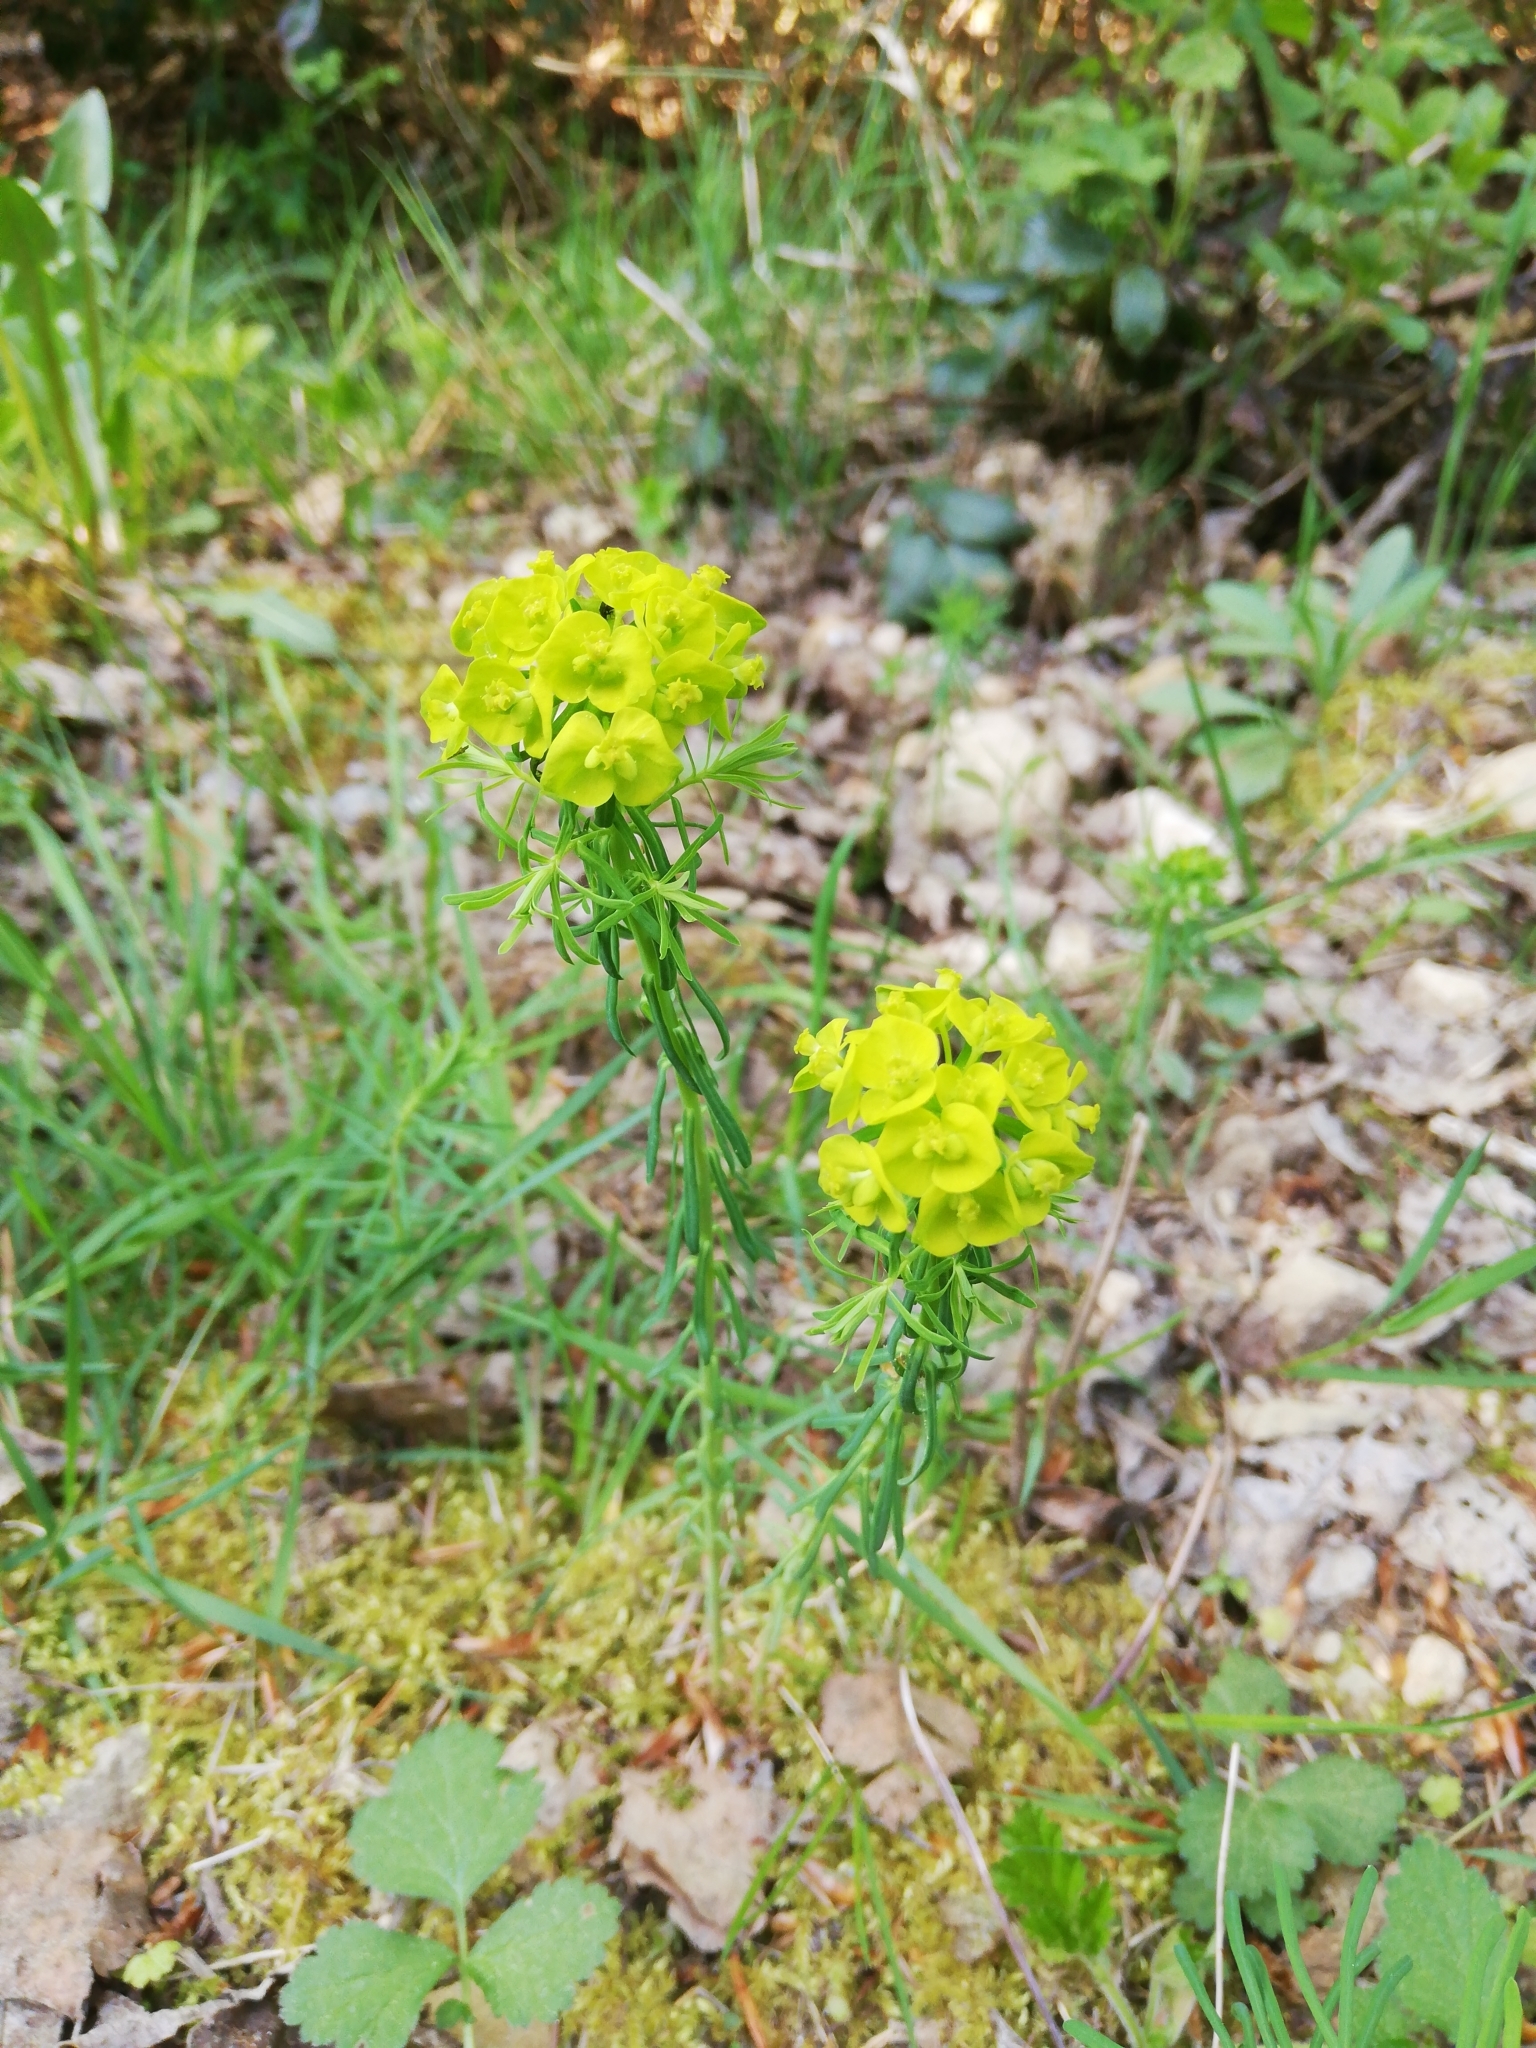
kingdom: Plantae
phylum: Tracheophyta
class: Magnoliopsida
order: Malpighiales
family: Euphorbiaceae
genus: Euphorbia
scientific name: Euphorbia cyparissias
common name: Cypress spurge
